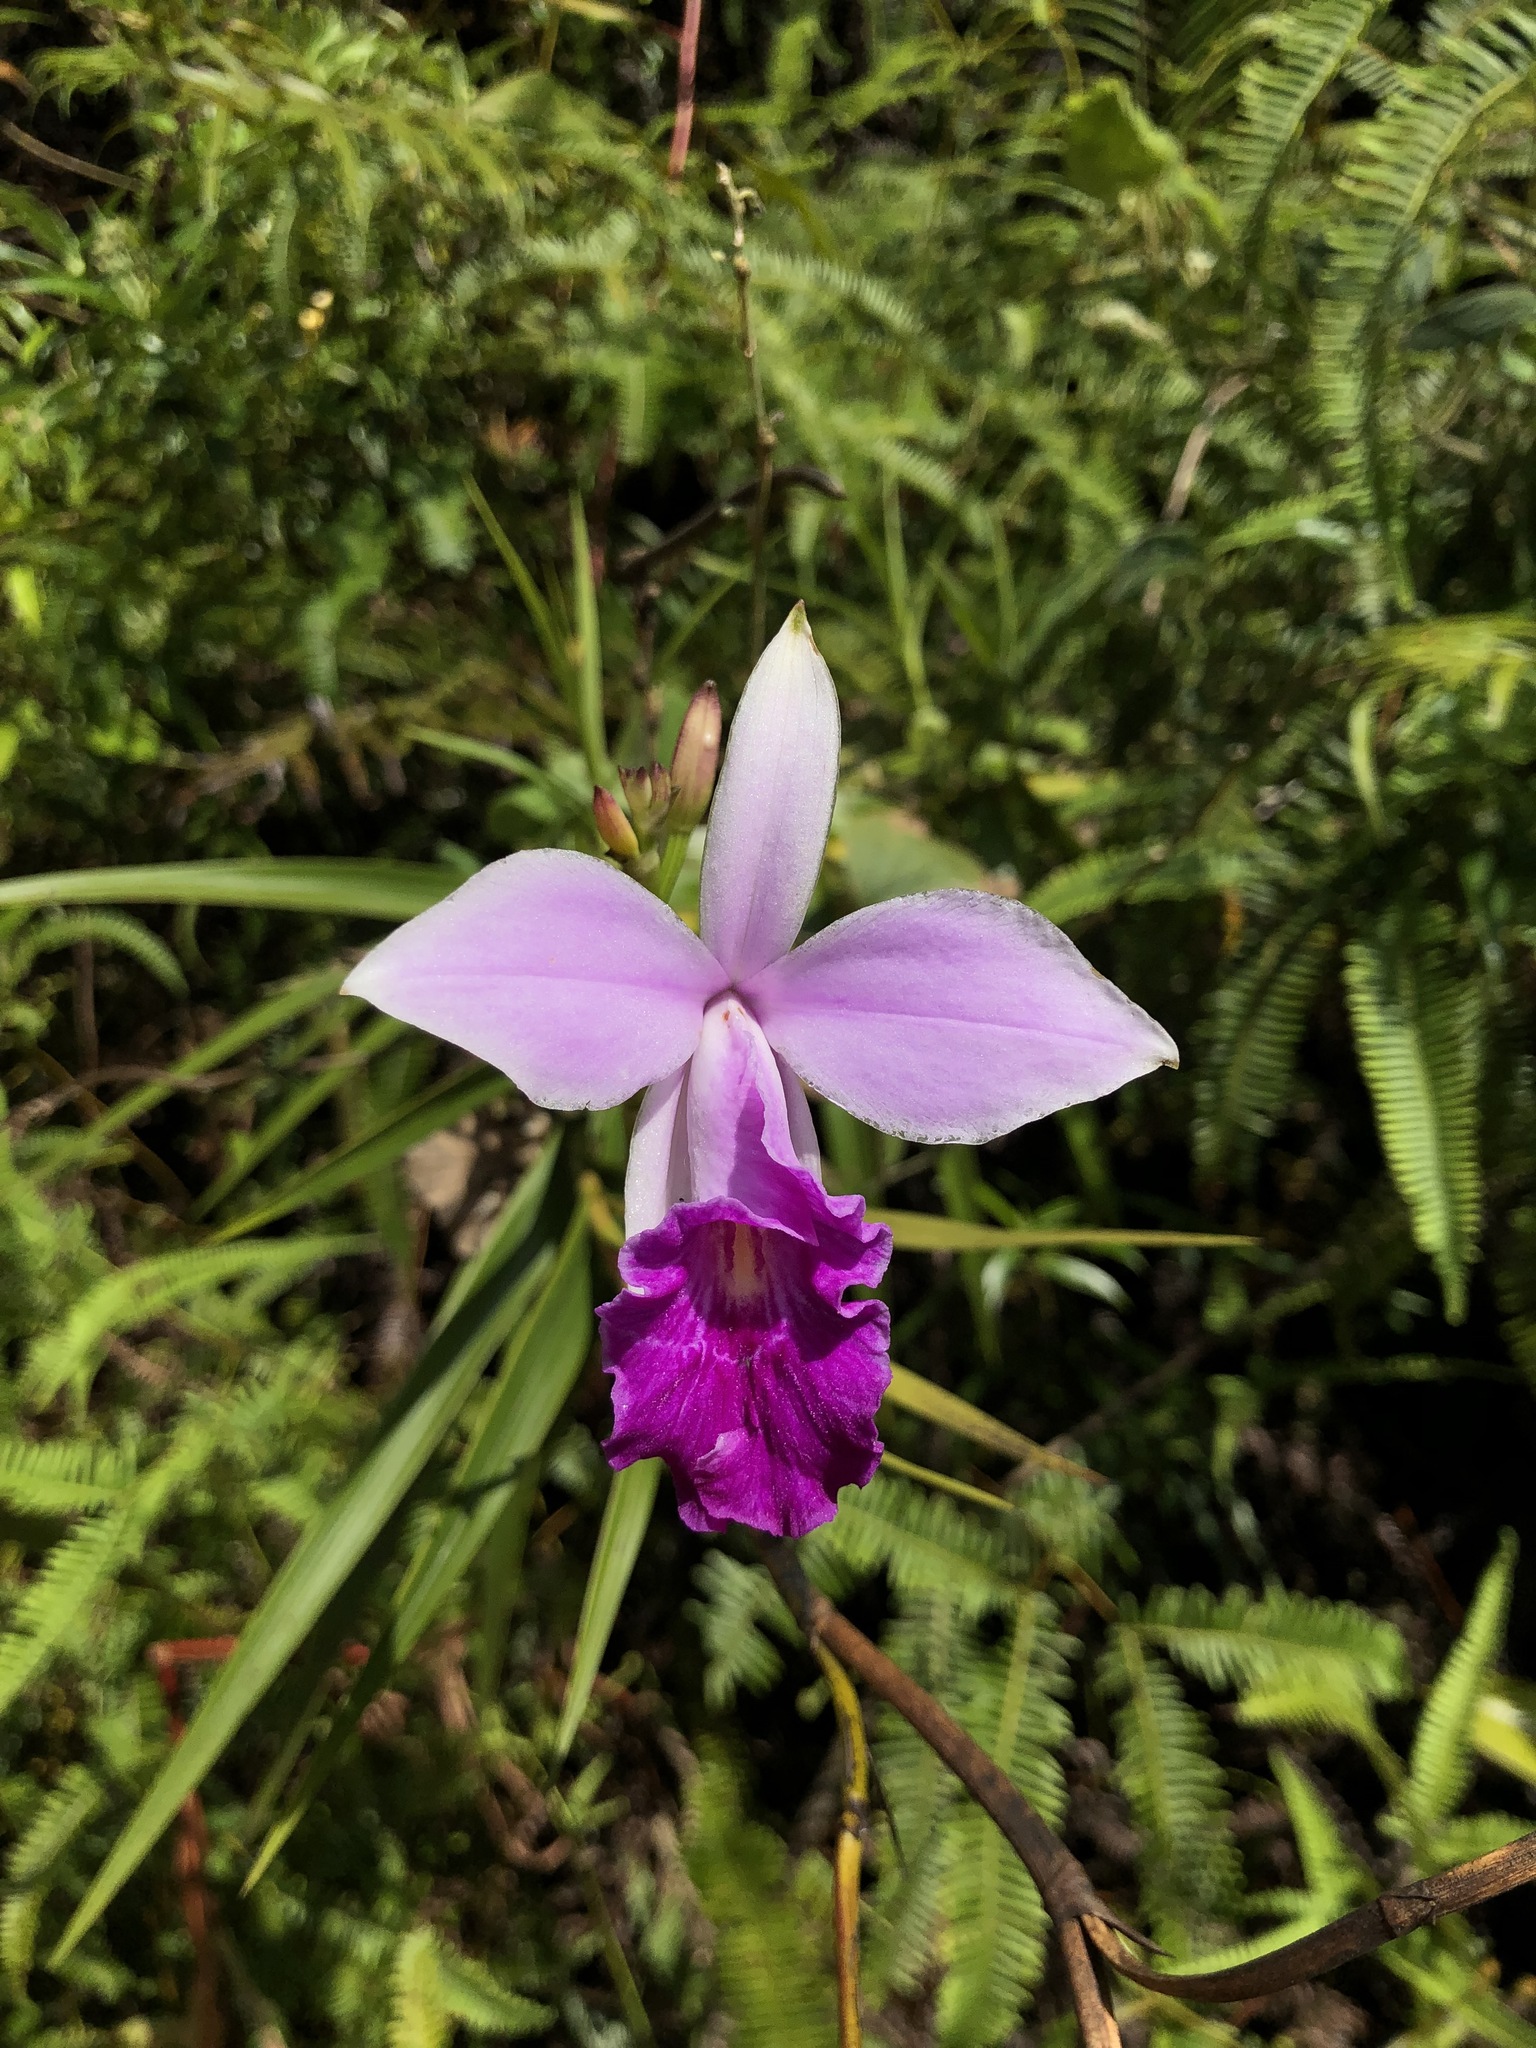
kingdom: Plantae
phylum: Tracheophyta
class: Liliopsida
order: Asparagales
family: Orchidaceae
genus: Arundina
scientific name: Arundina graminifolia
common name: Bamboo orchid
